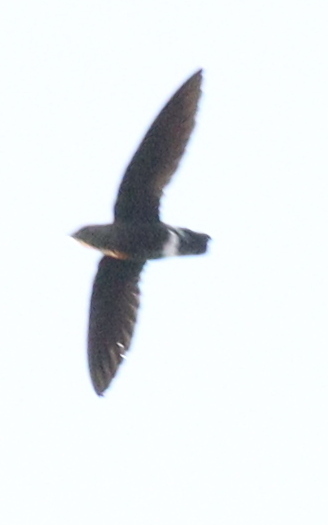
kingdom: Animalia
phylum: Chordata
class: Aves
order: Apodiformes
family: Apodidae
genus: Telacanthura
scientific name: Telacanthura ussheri
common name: Mottled spinetail
